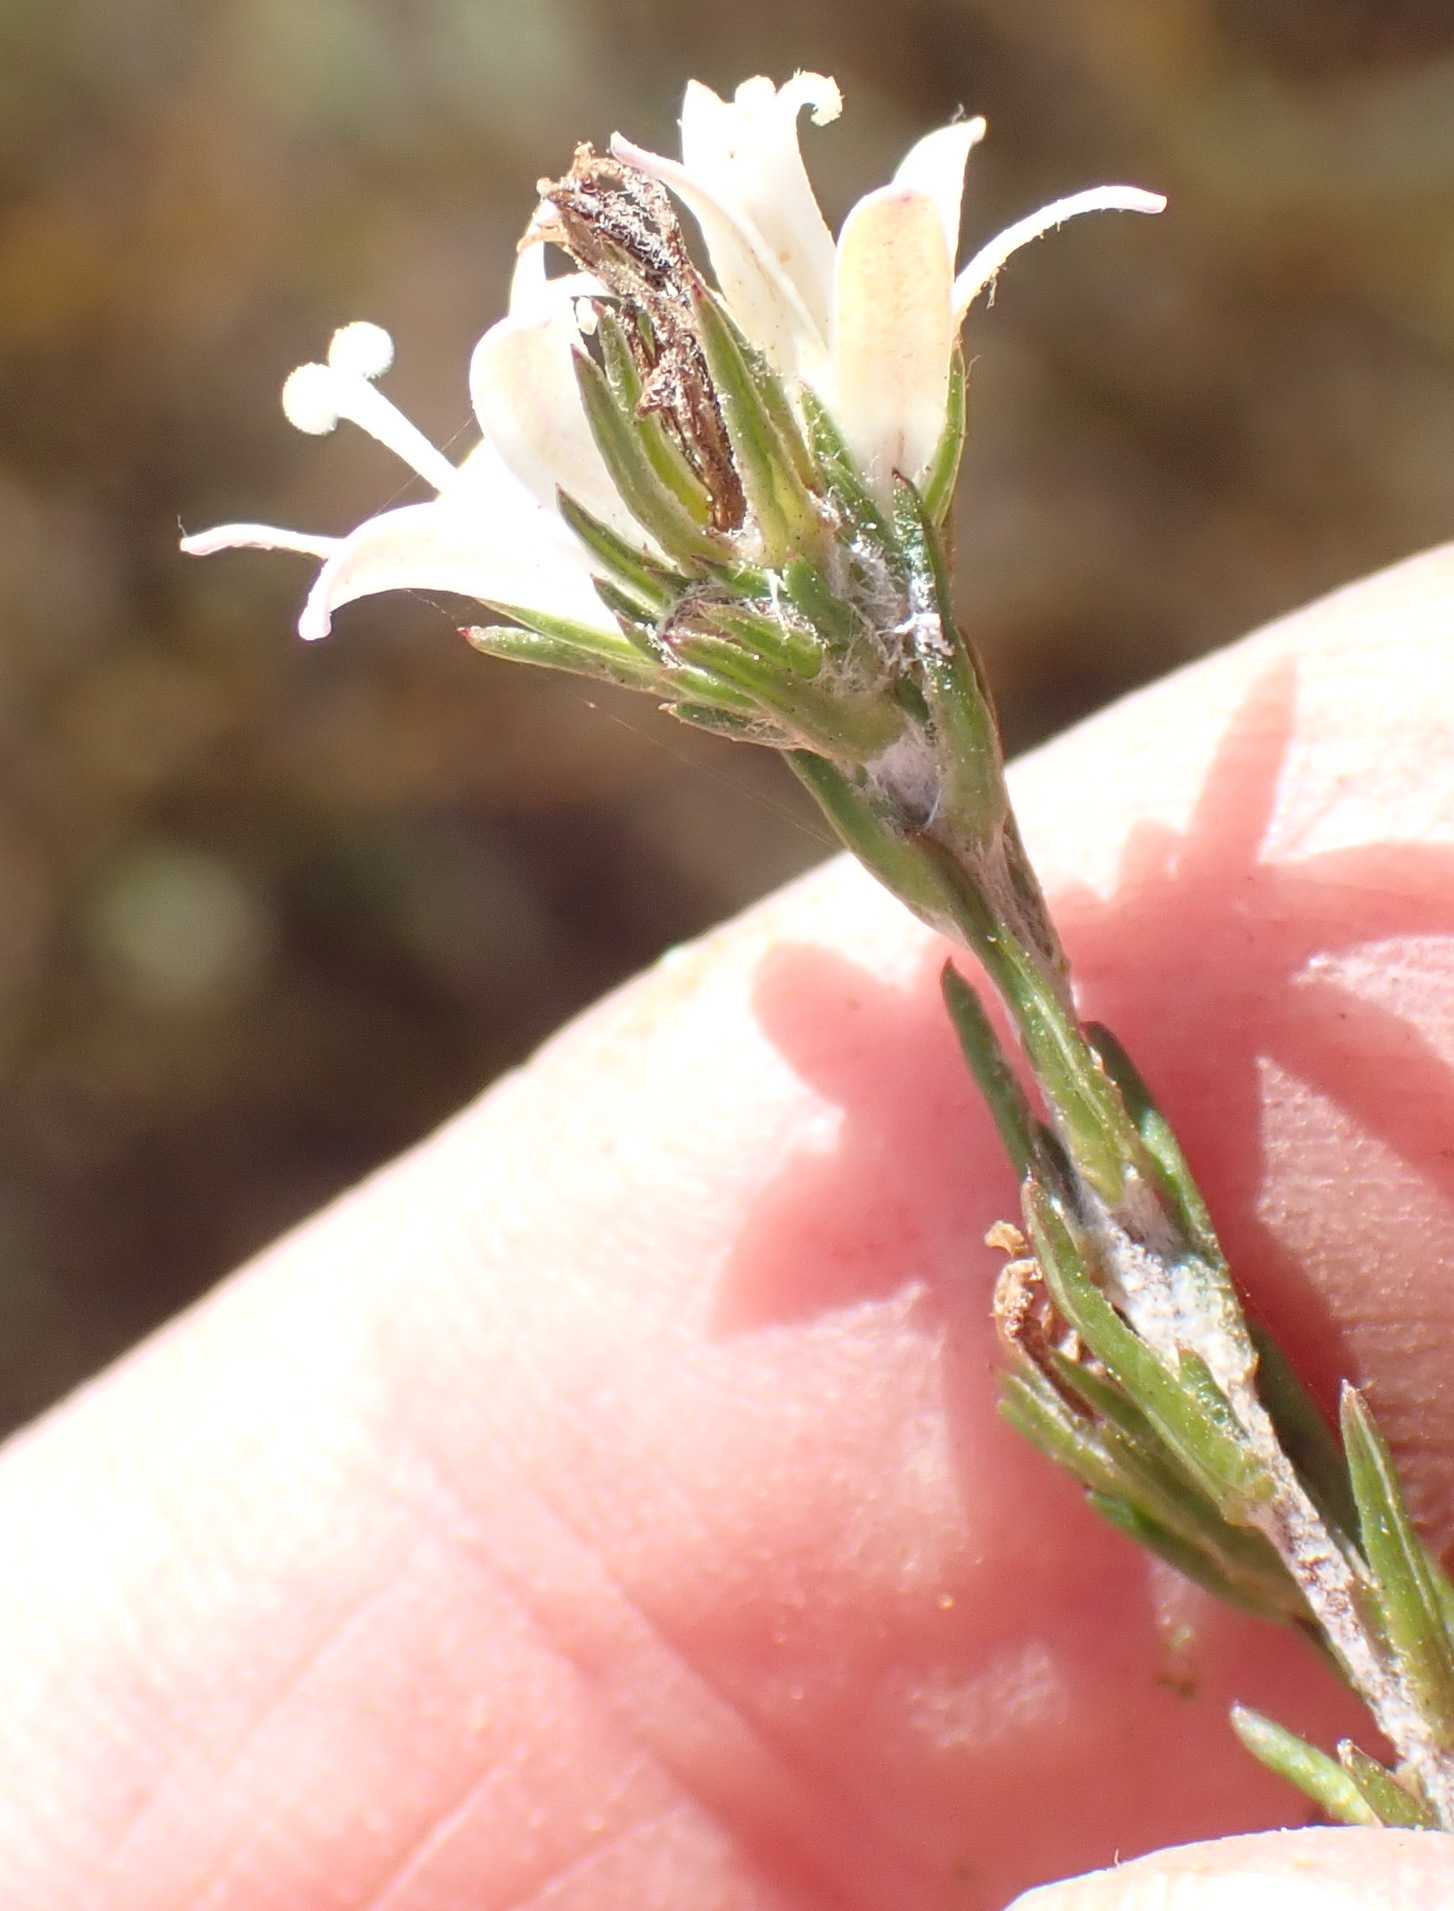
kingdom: Plantae
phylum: Tracheophyta
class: Magnoliopsida
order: Asterales
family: Campanulaceae
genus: Wahlenbergia
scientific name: Wahlenbergia cinerea
